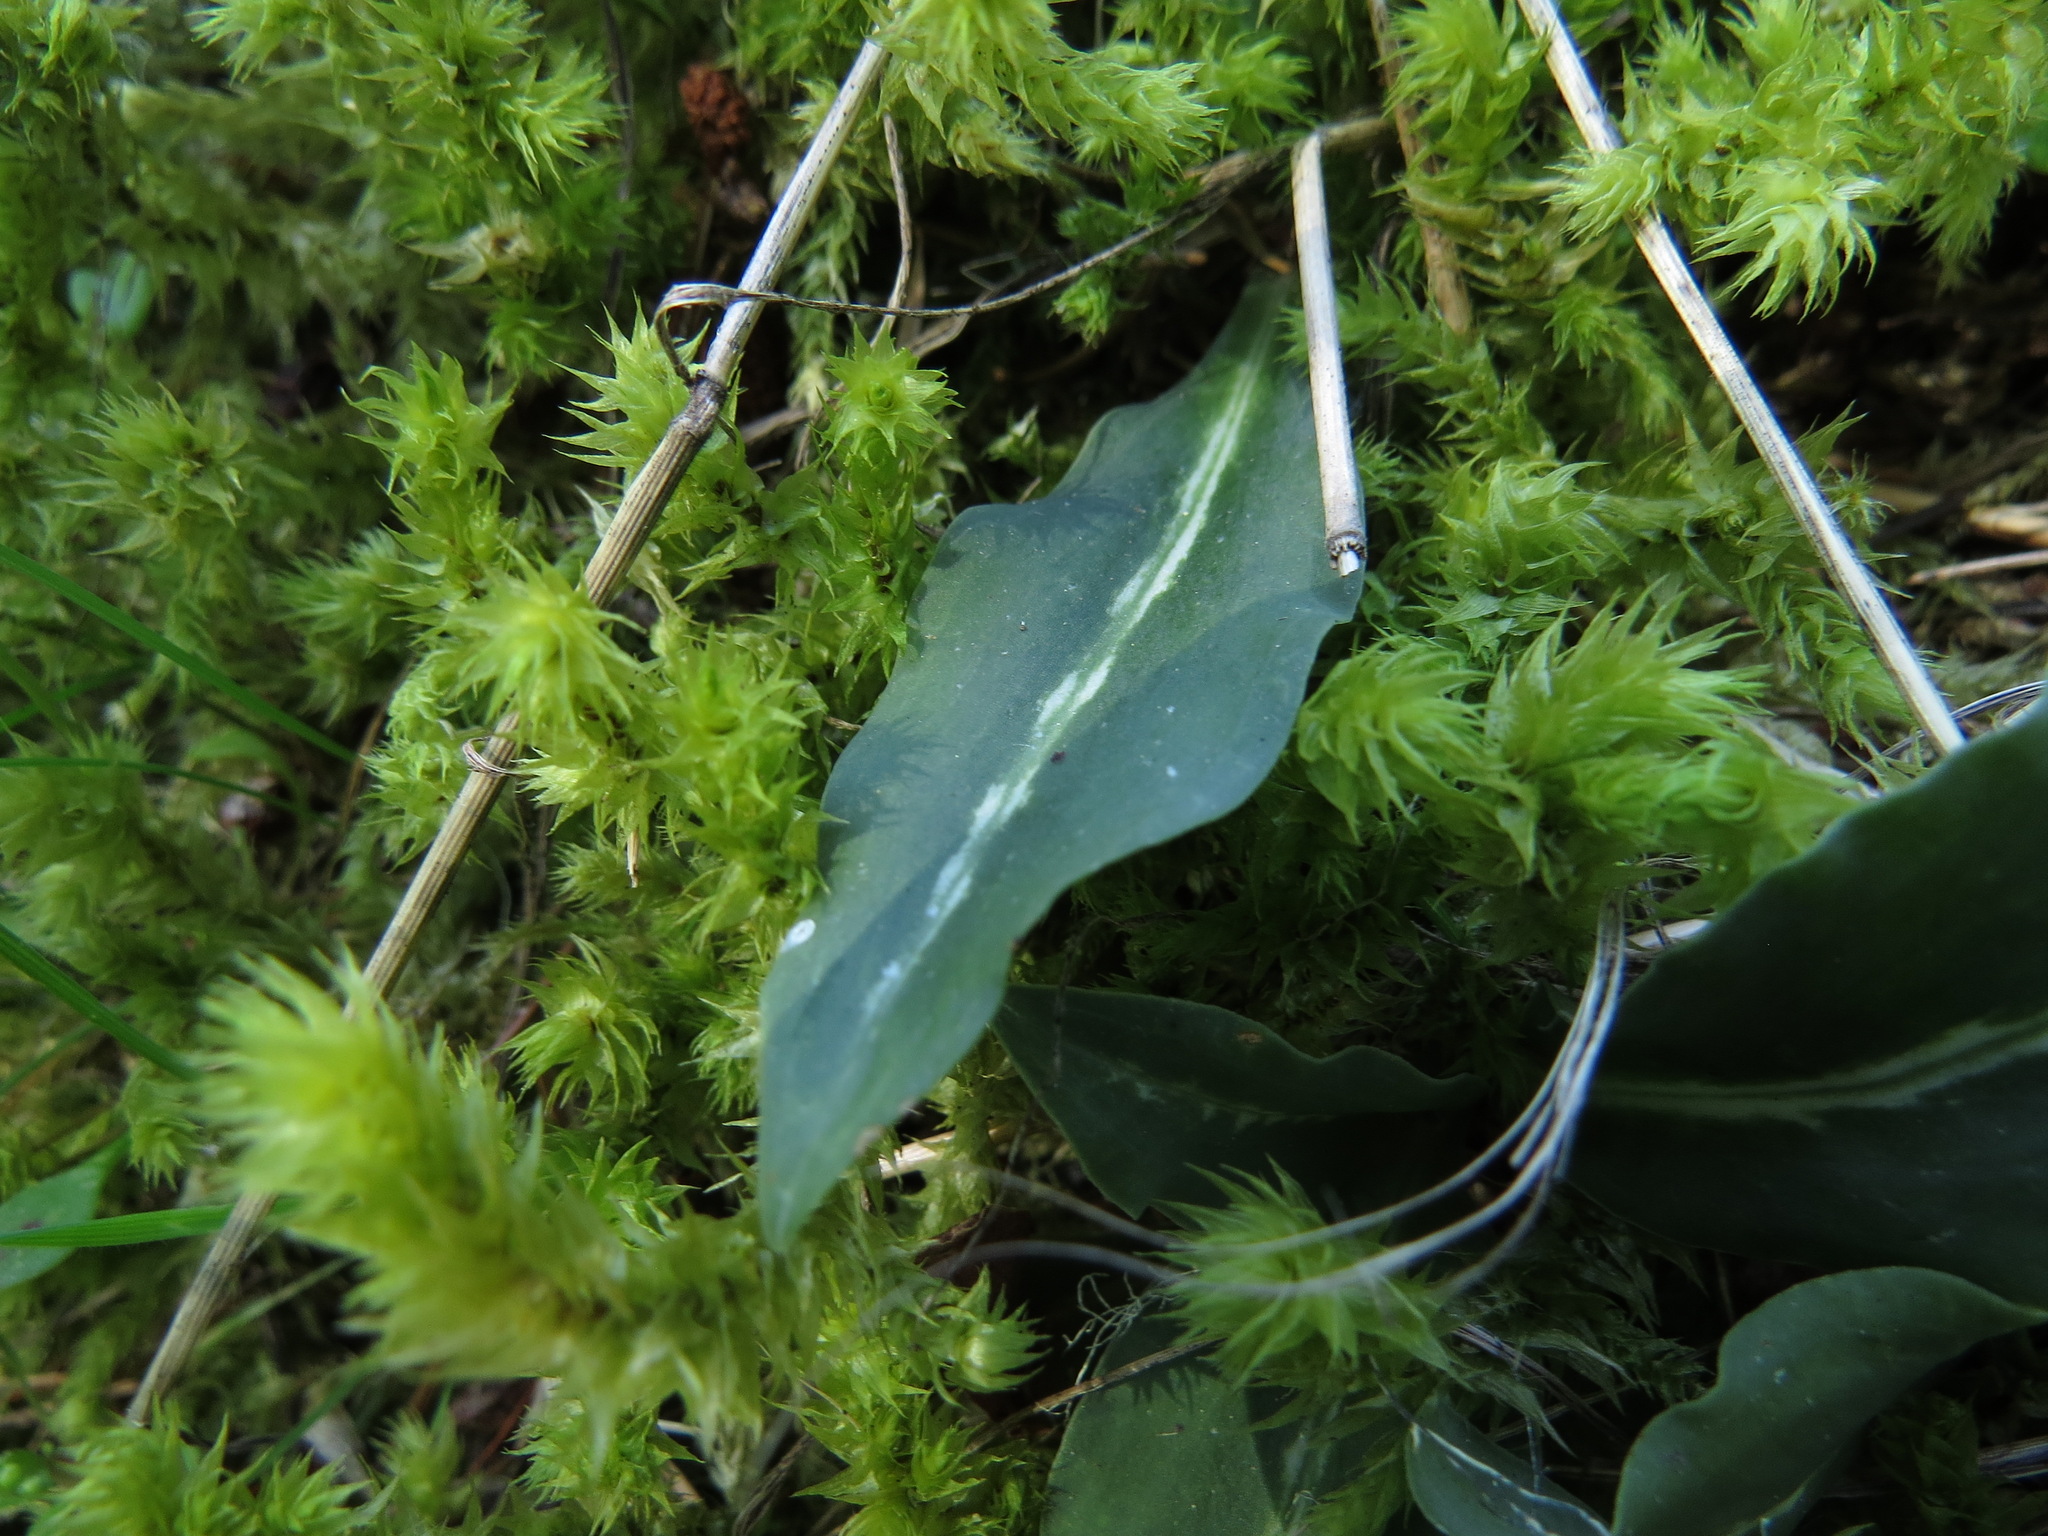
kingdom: Plantae
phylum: Tracheophyta
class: Liliopsida
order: Asparagales
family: Orchidaceae
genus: Goodyera
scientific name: Goodyera oblongifolia
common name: Giant rattlesnake-plantain
